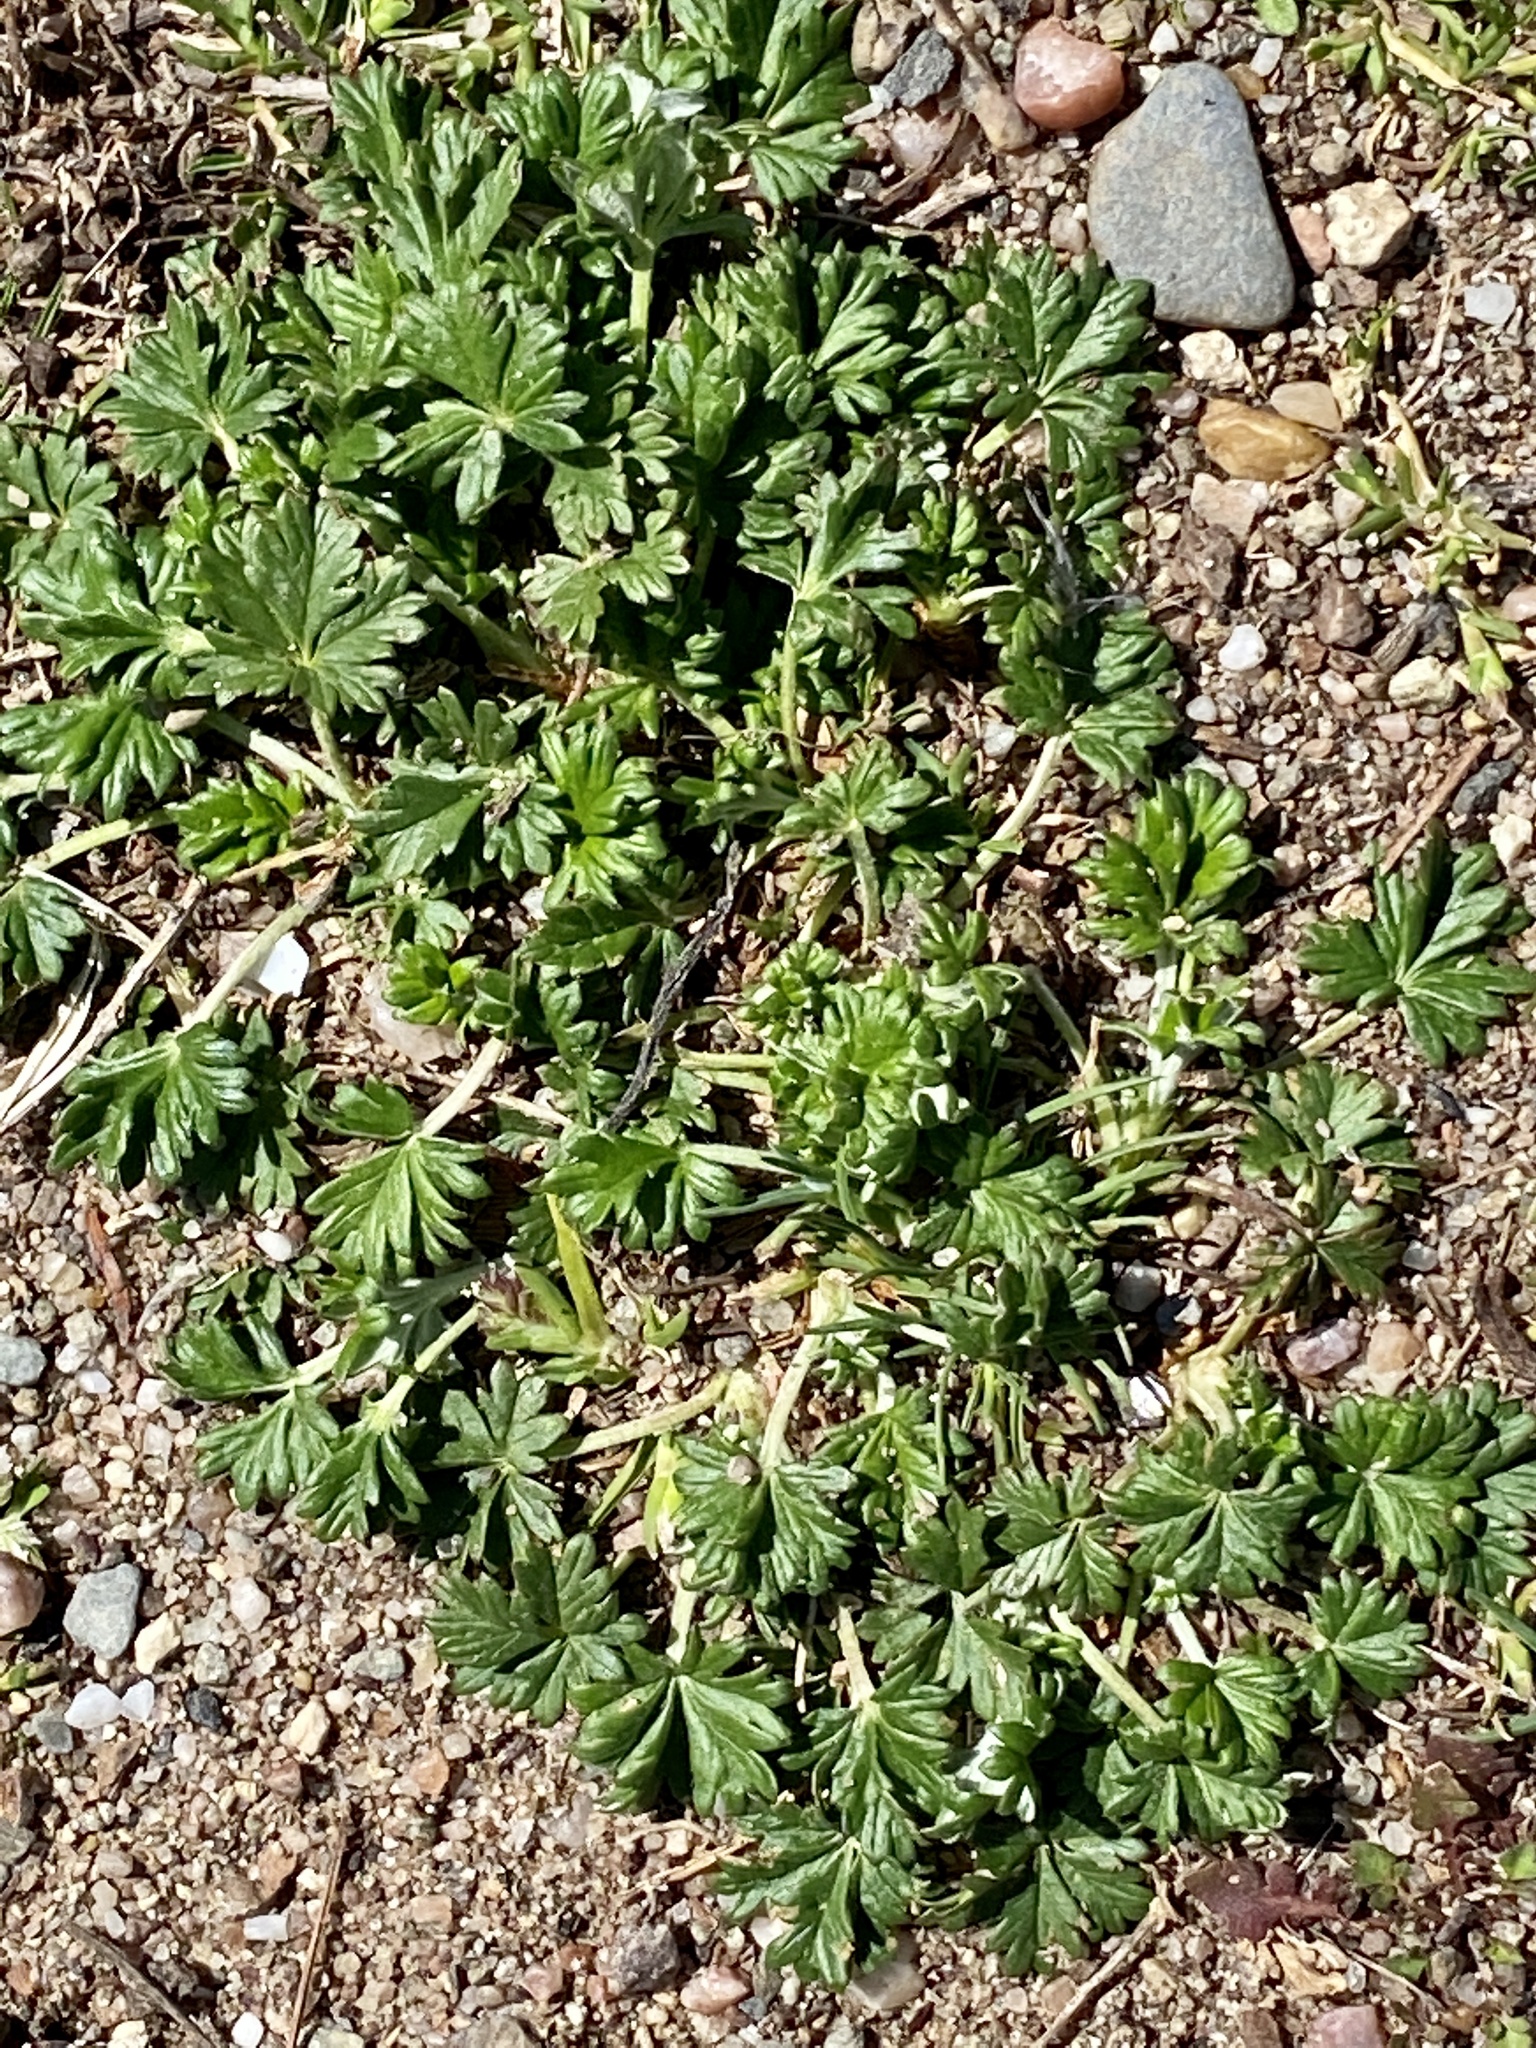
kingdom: Plantae
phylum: Tracheophyta
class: Magnoliopsida
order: Rosales
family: Rosaceae
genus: Potentilla
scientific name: Potentilla argentea
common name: Hoary cinquefoil
